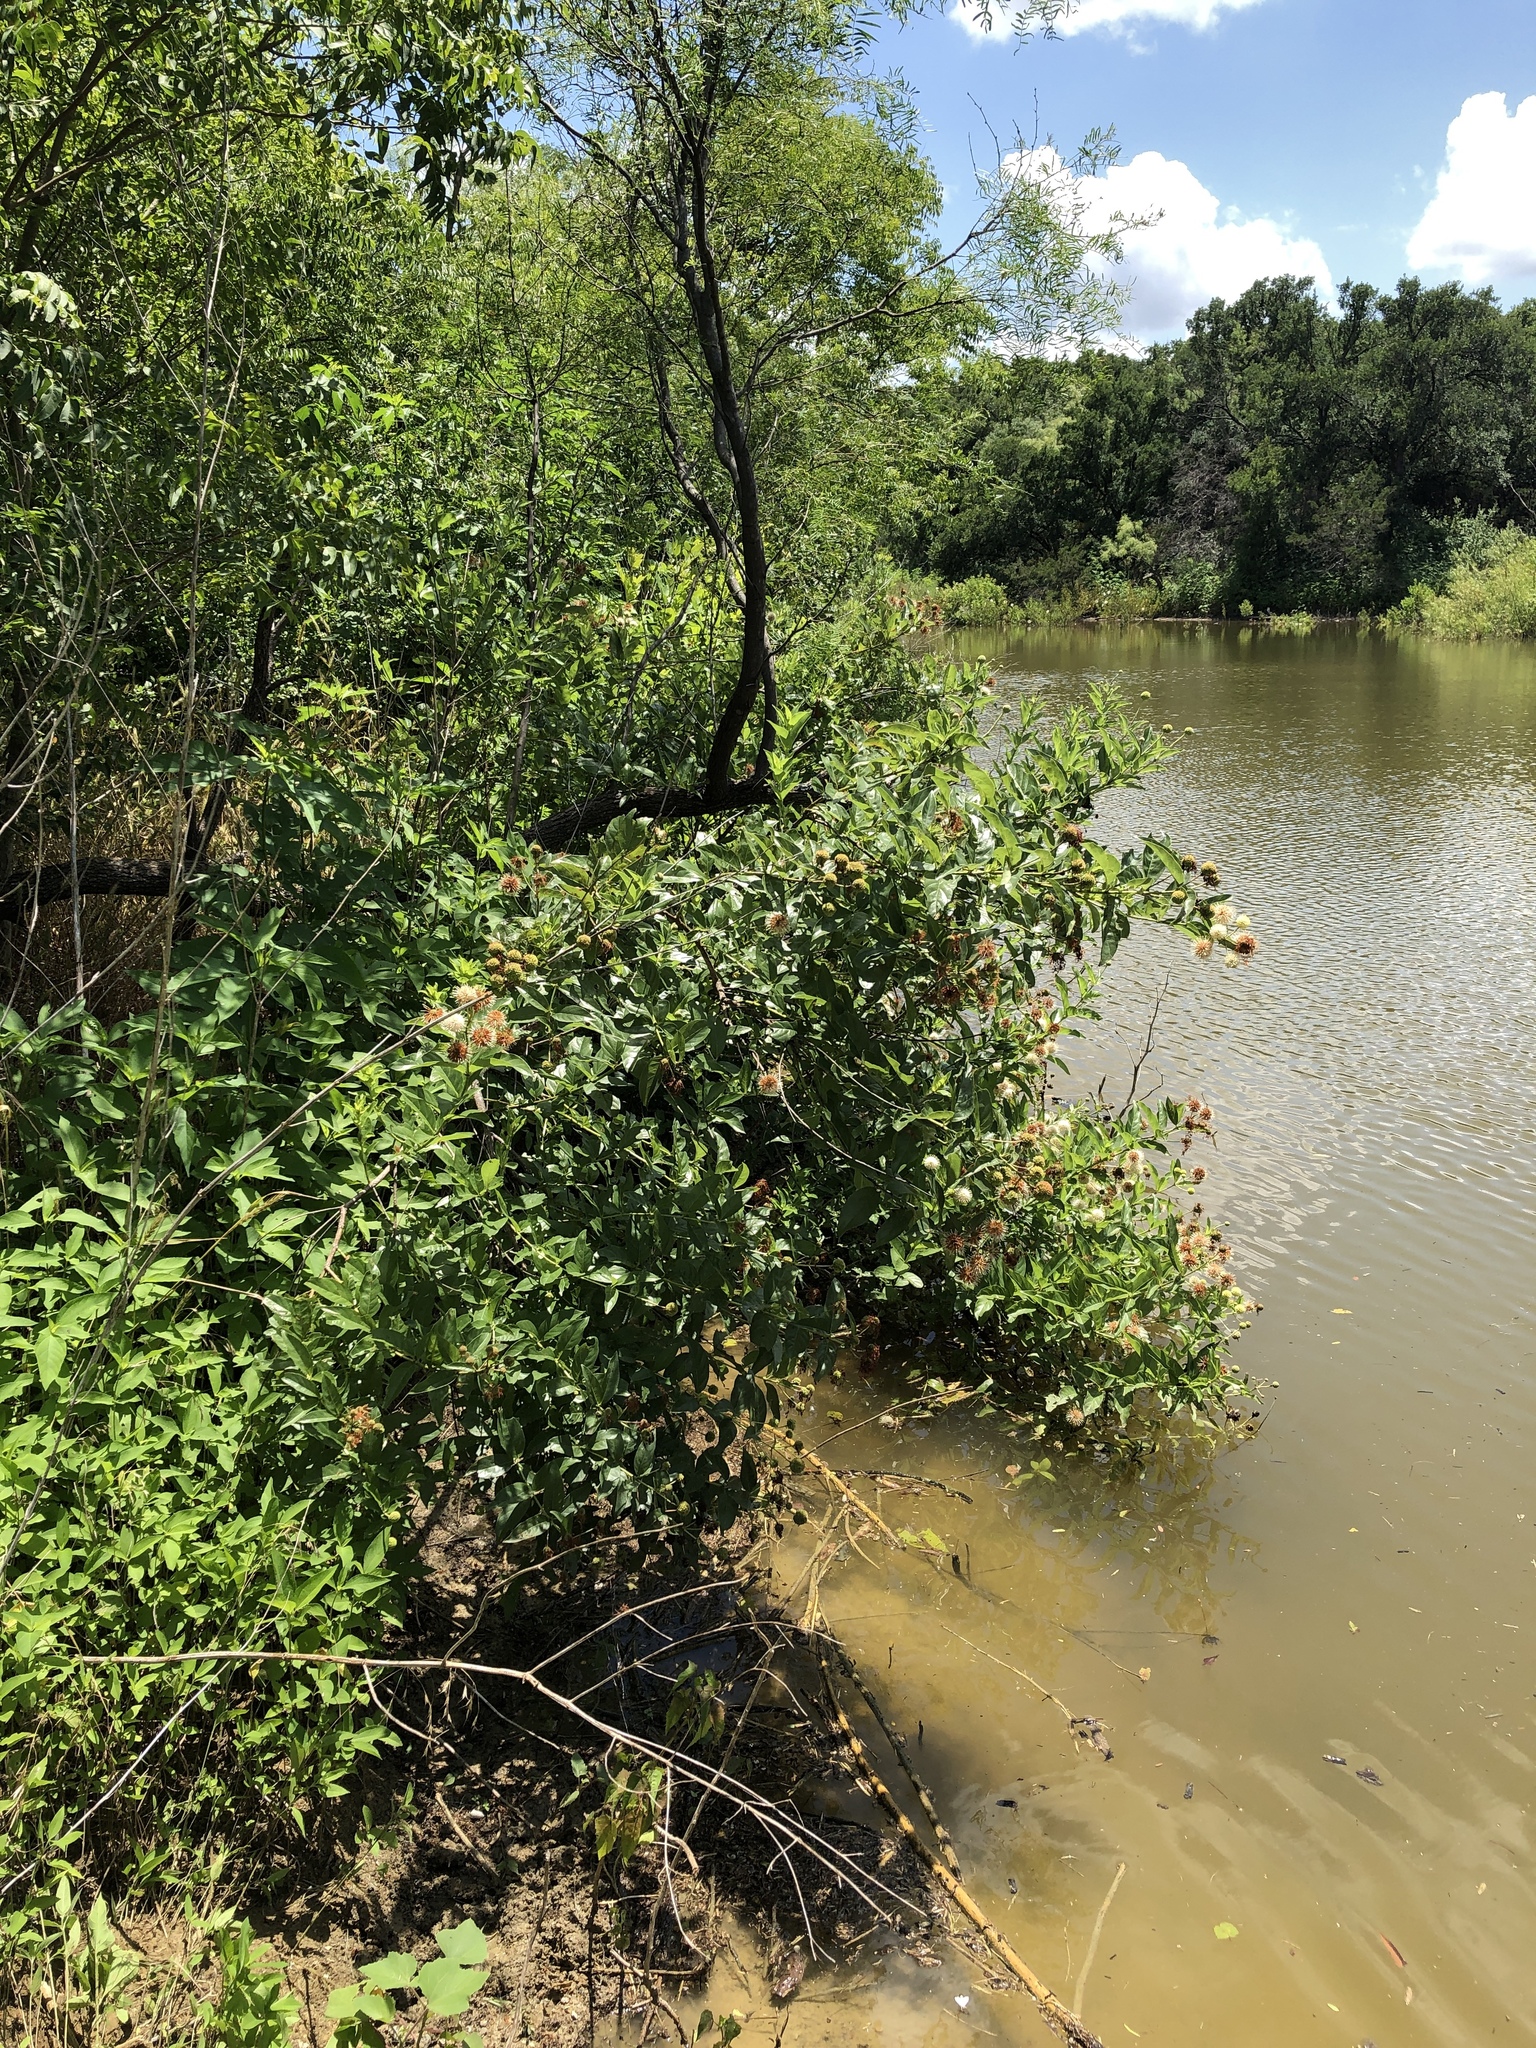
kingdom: Plantae
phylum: Tracheophyta
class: Magnoliopsida
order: Gentianales
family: Rubiaceae
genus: Cephalanthus
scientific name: Cephalanthus occidentalis
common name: Button-willow
